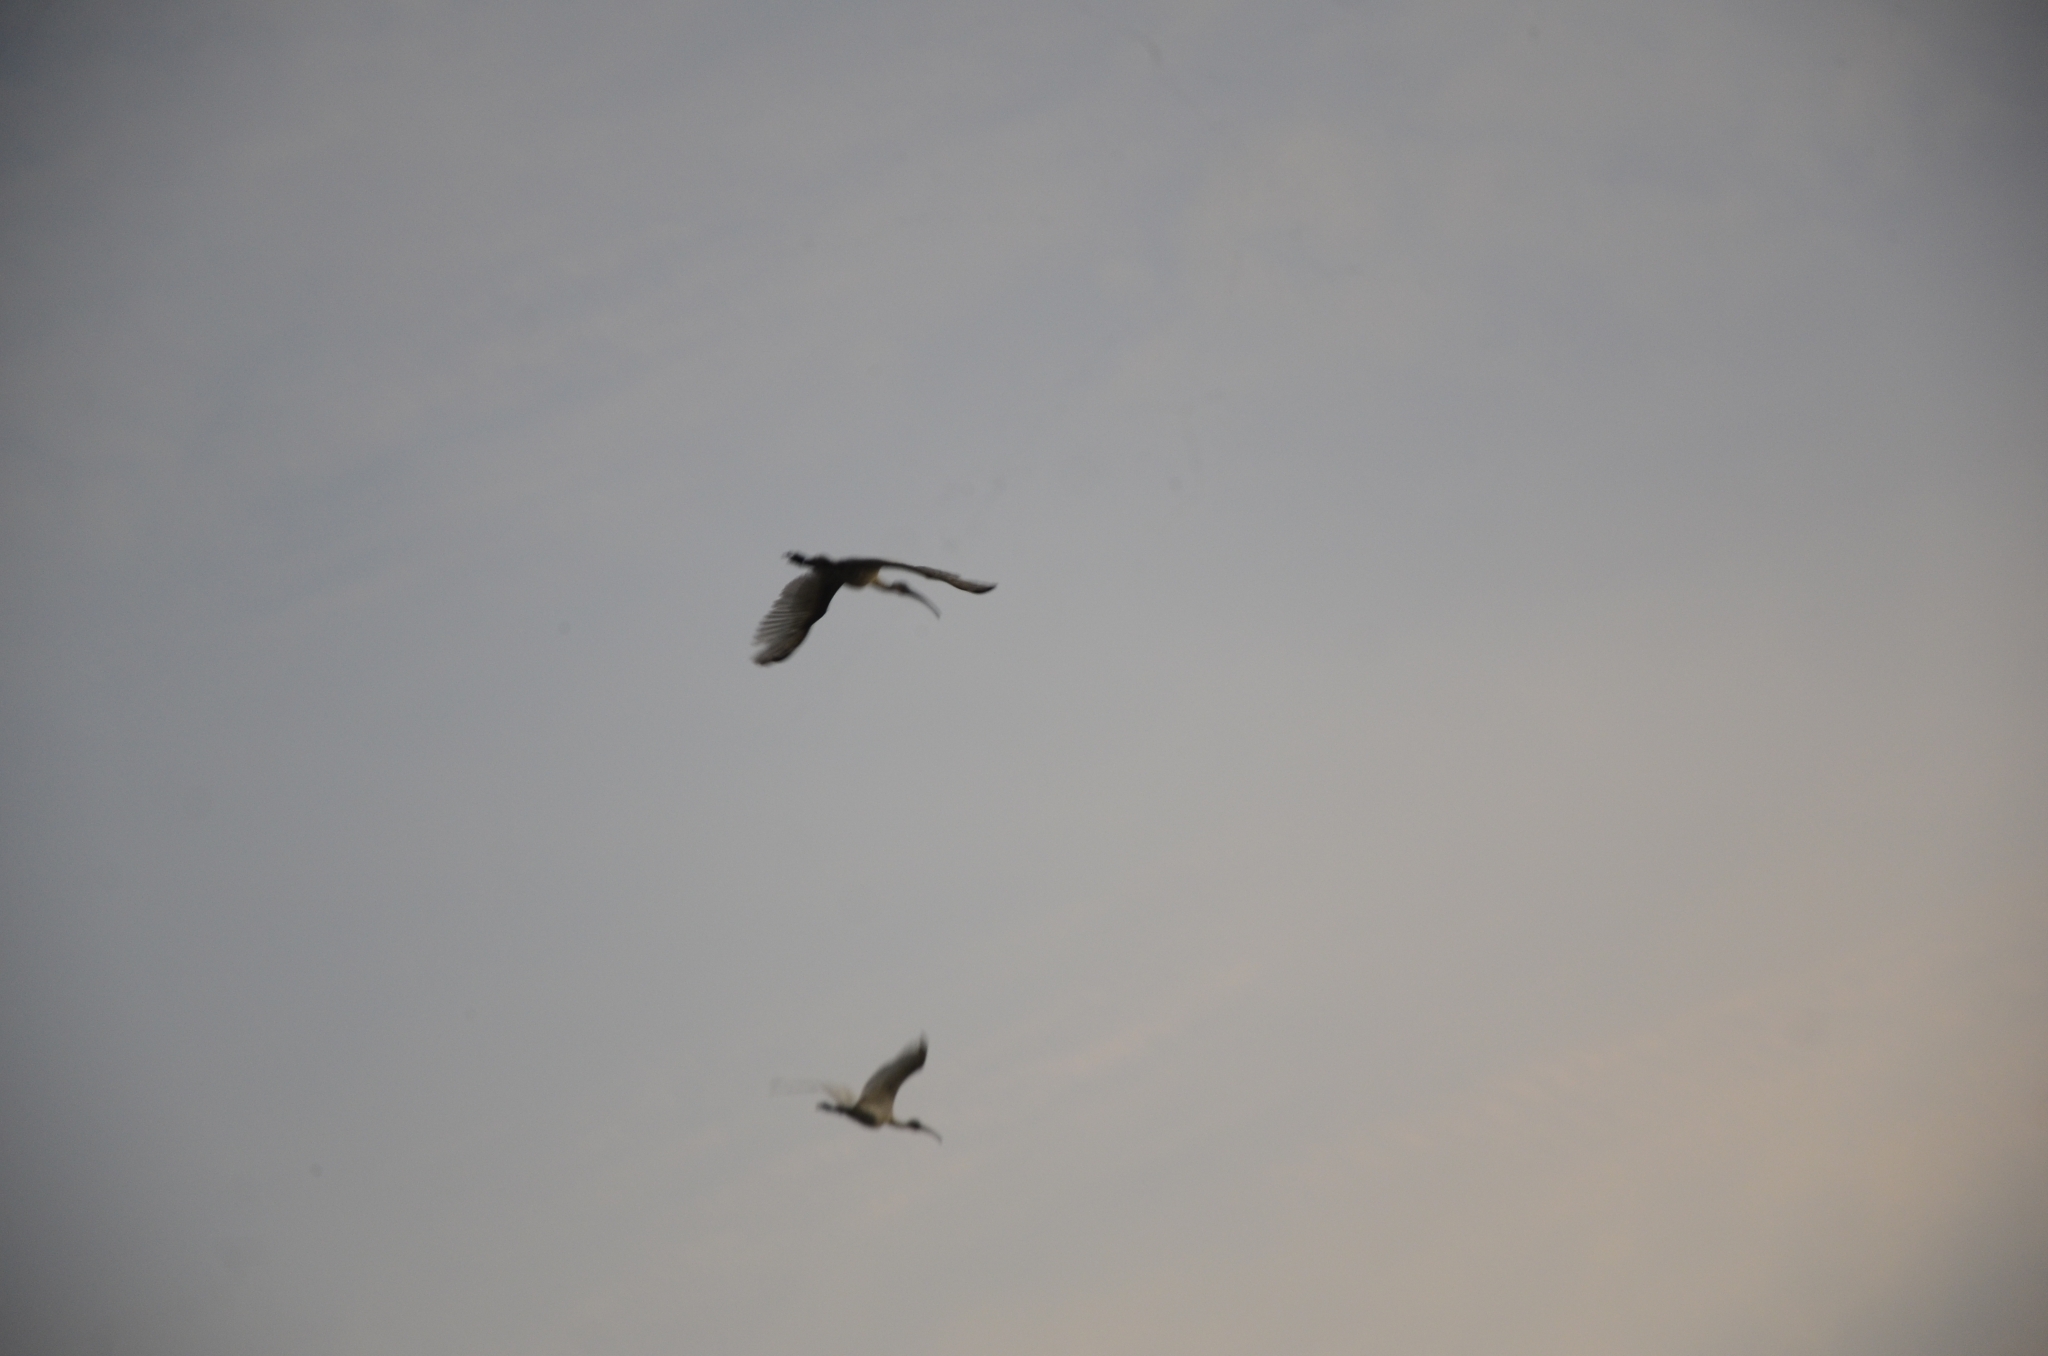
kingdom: Animalia
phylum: Chordata
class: Aves
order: Pelecaniformes
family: Threskiornithidae
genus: Threskiornis
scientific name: Threskiornis melanocephalus
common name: Black-headed ibis
